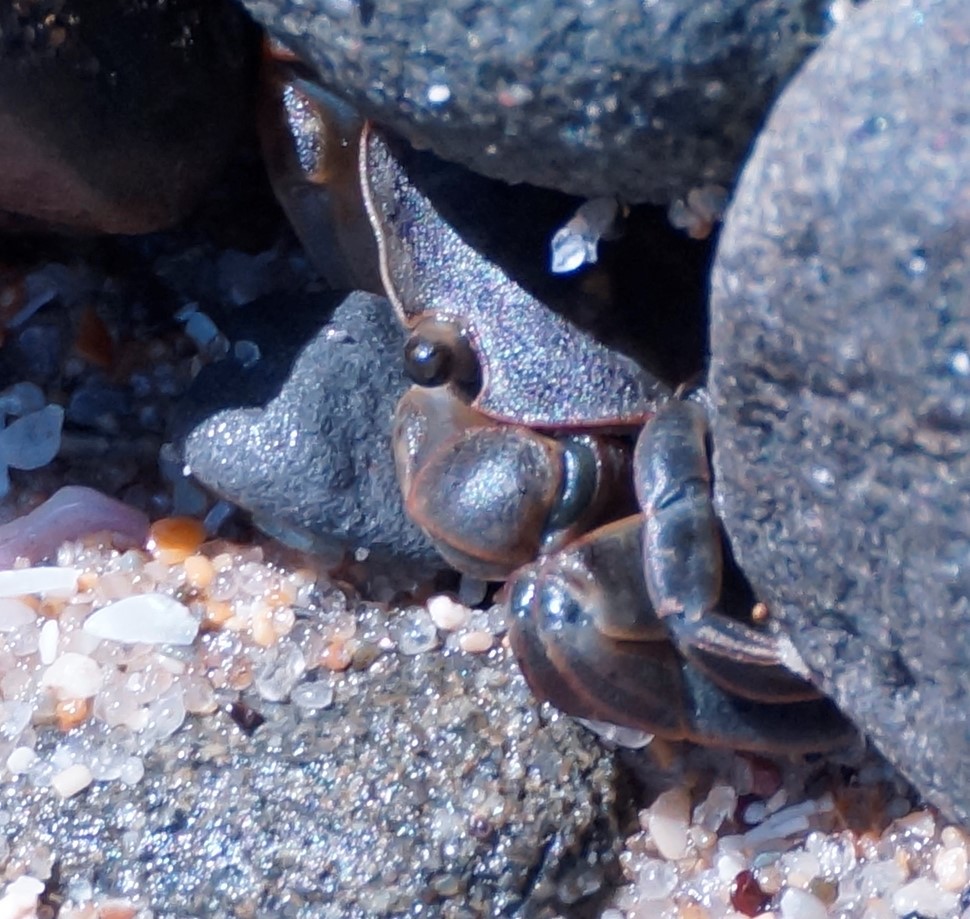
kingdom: Animalia
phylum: Arthropoda
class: Malacostraca
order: Decapoda
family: Varunidae
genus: Cyclograpsus
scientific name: Cyclograpsus granulosus
